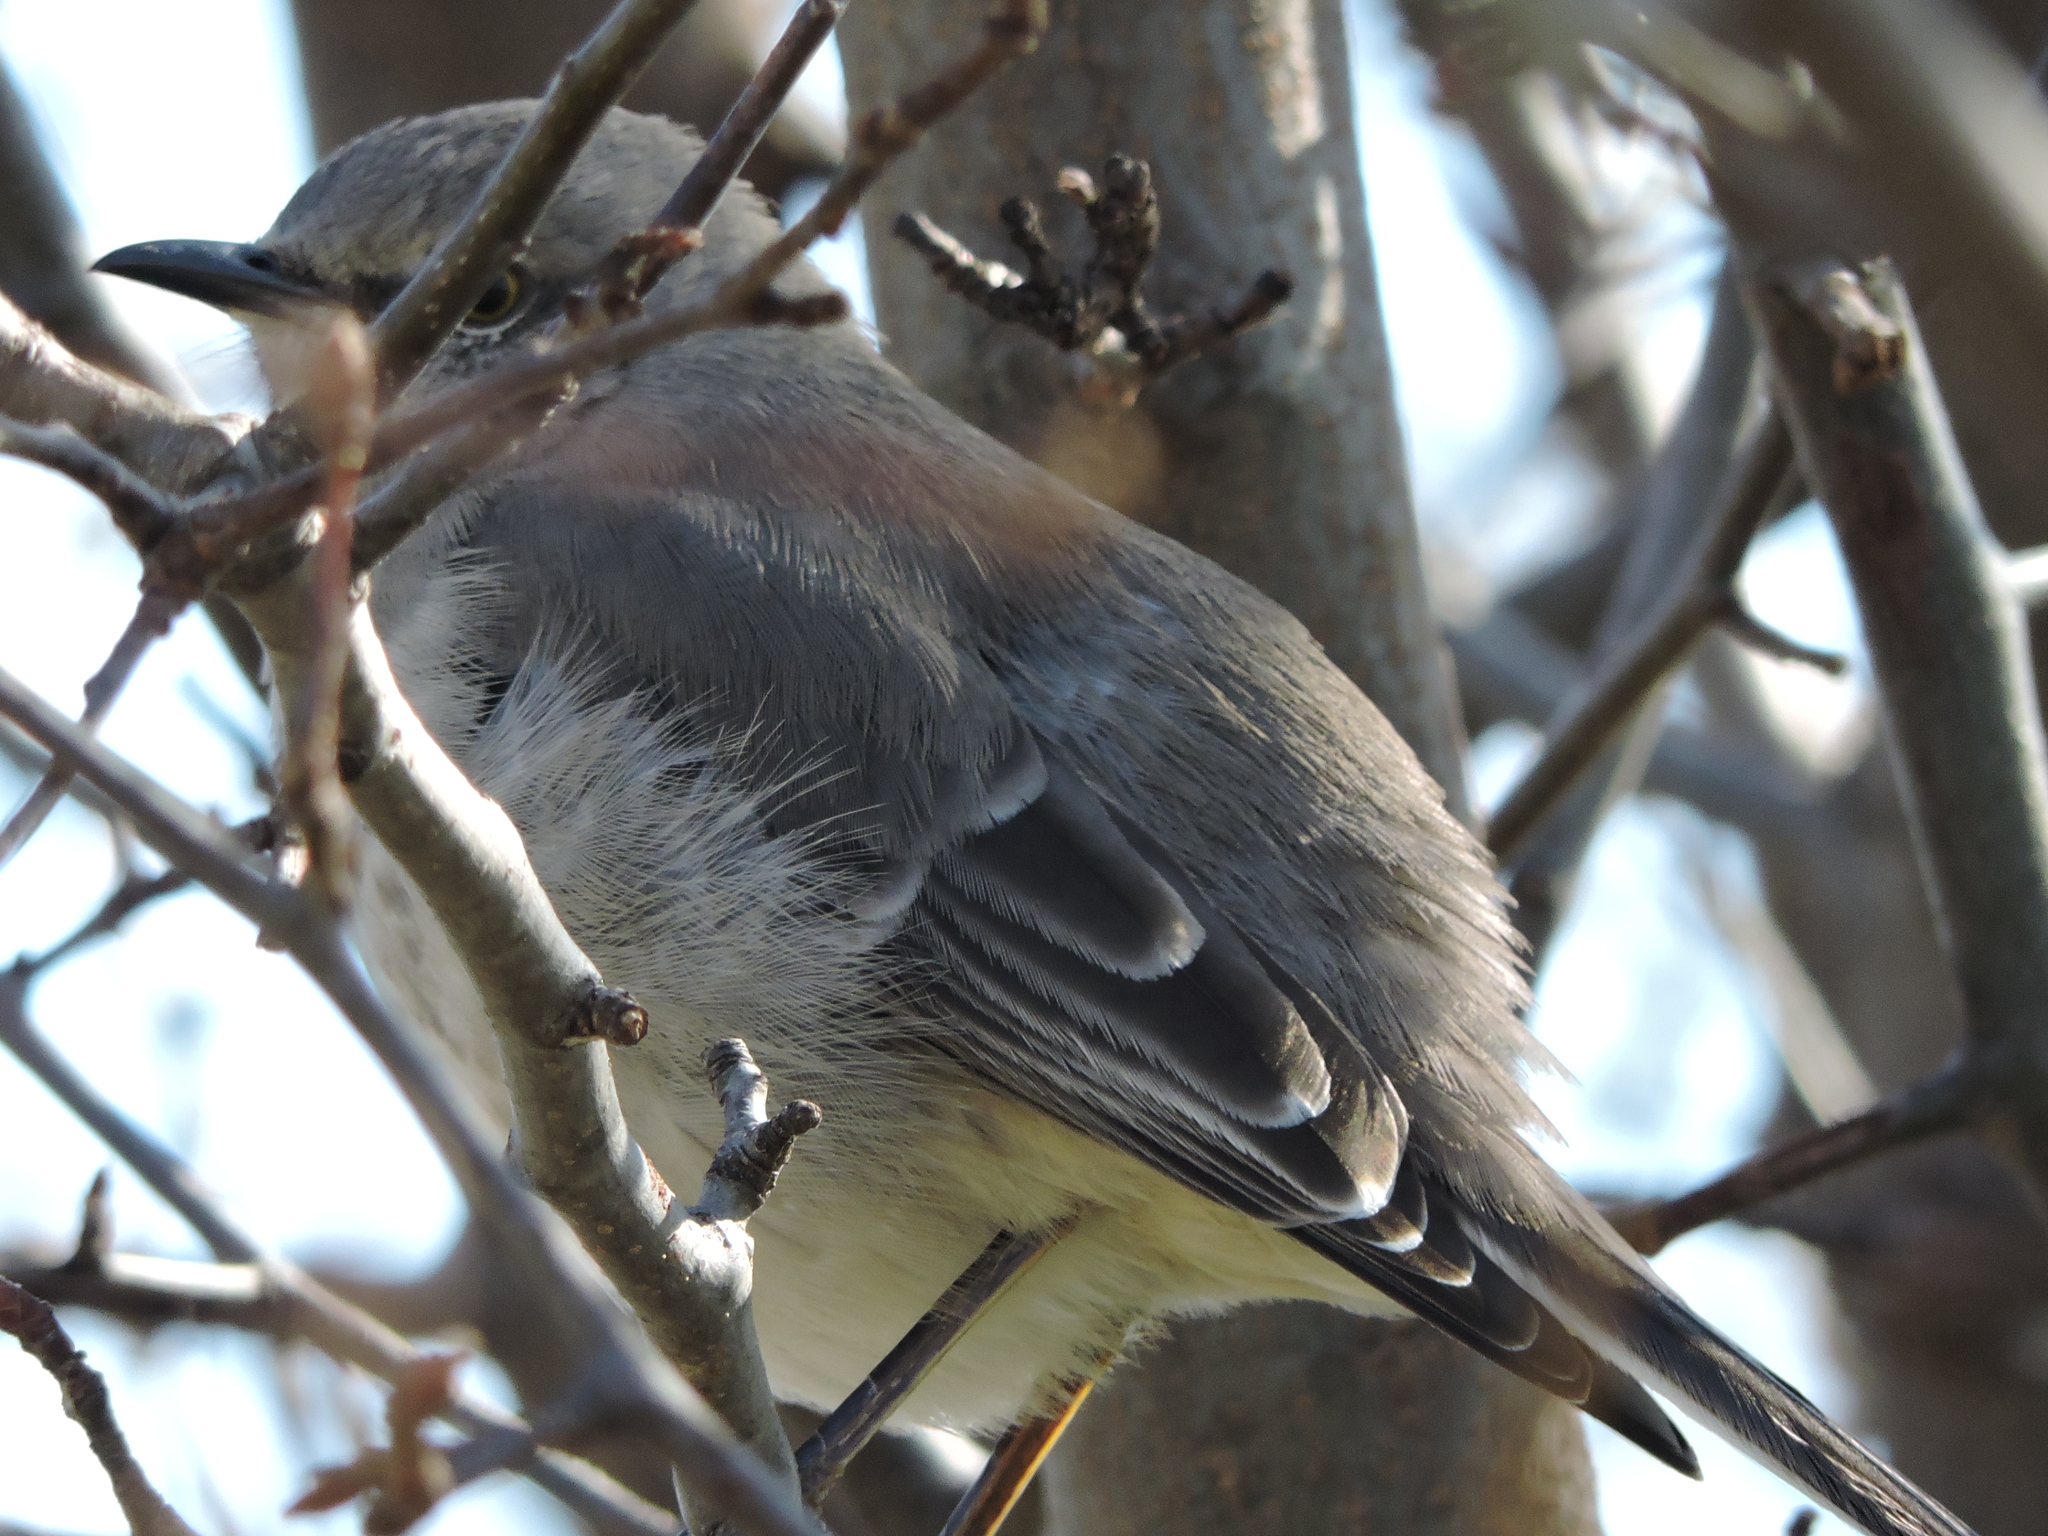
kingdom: Animalia
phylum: Chordata
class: Aves
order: Passeriformes
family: Mimidae
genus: Mimus
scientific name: Mimus polyglottos
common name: Northern mockingbird
